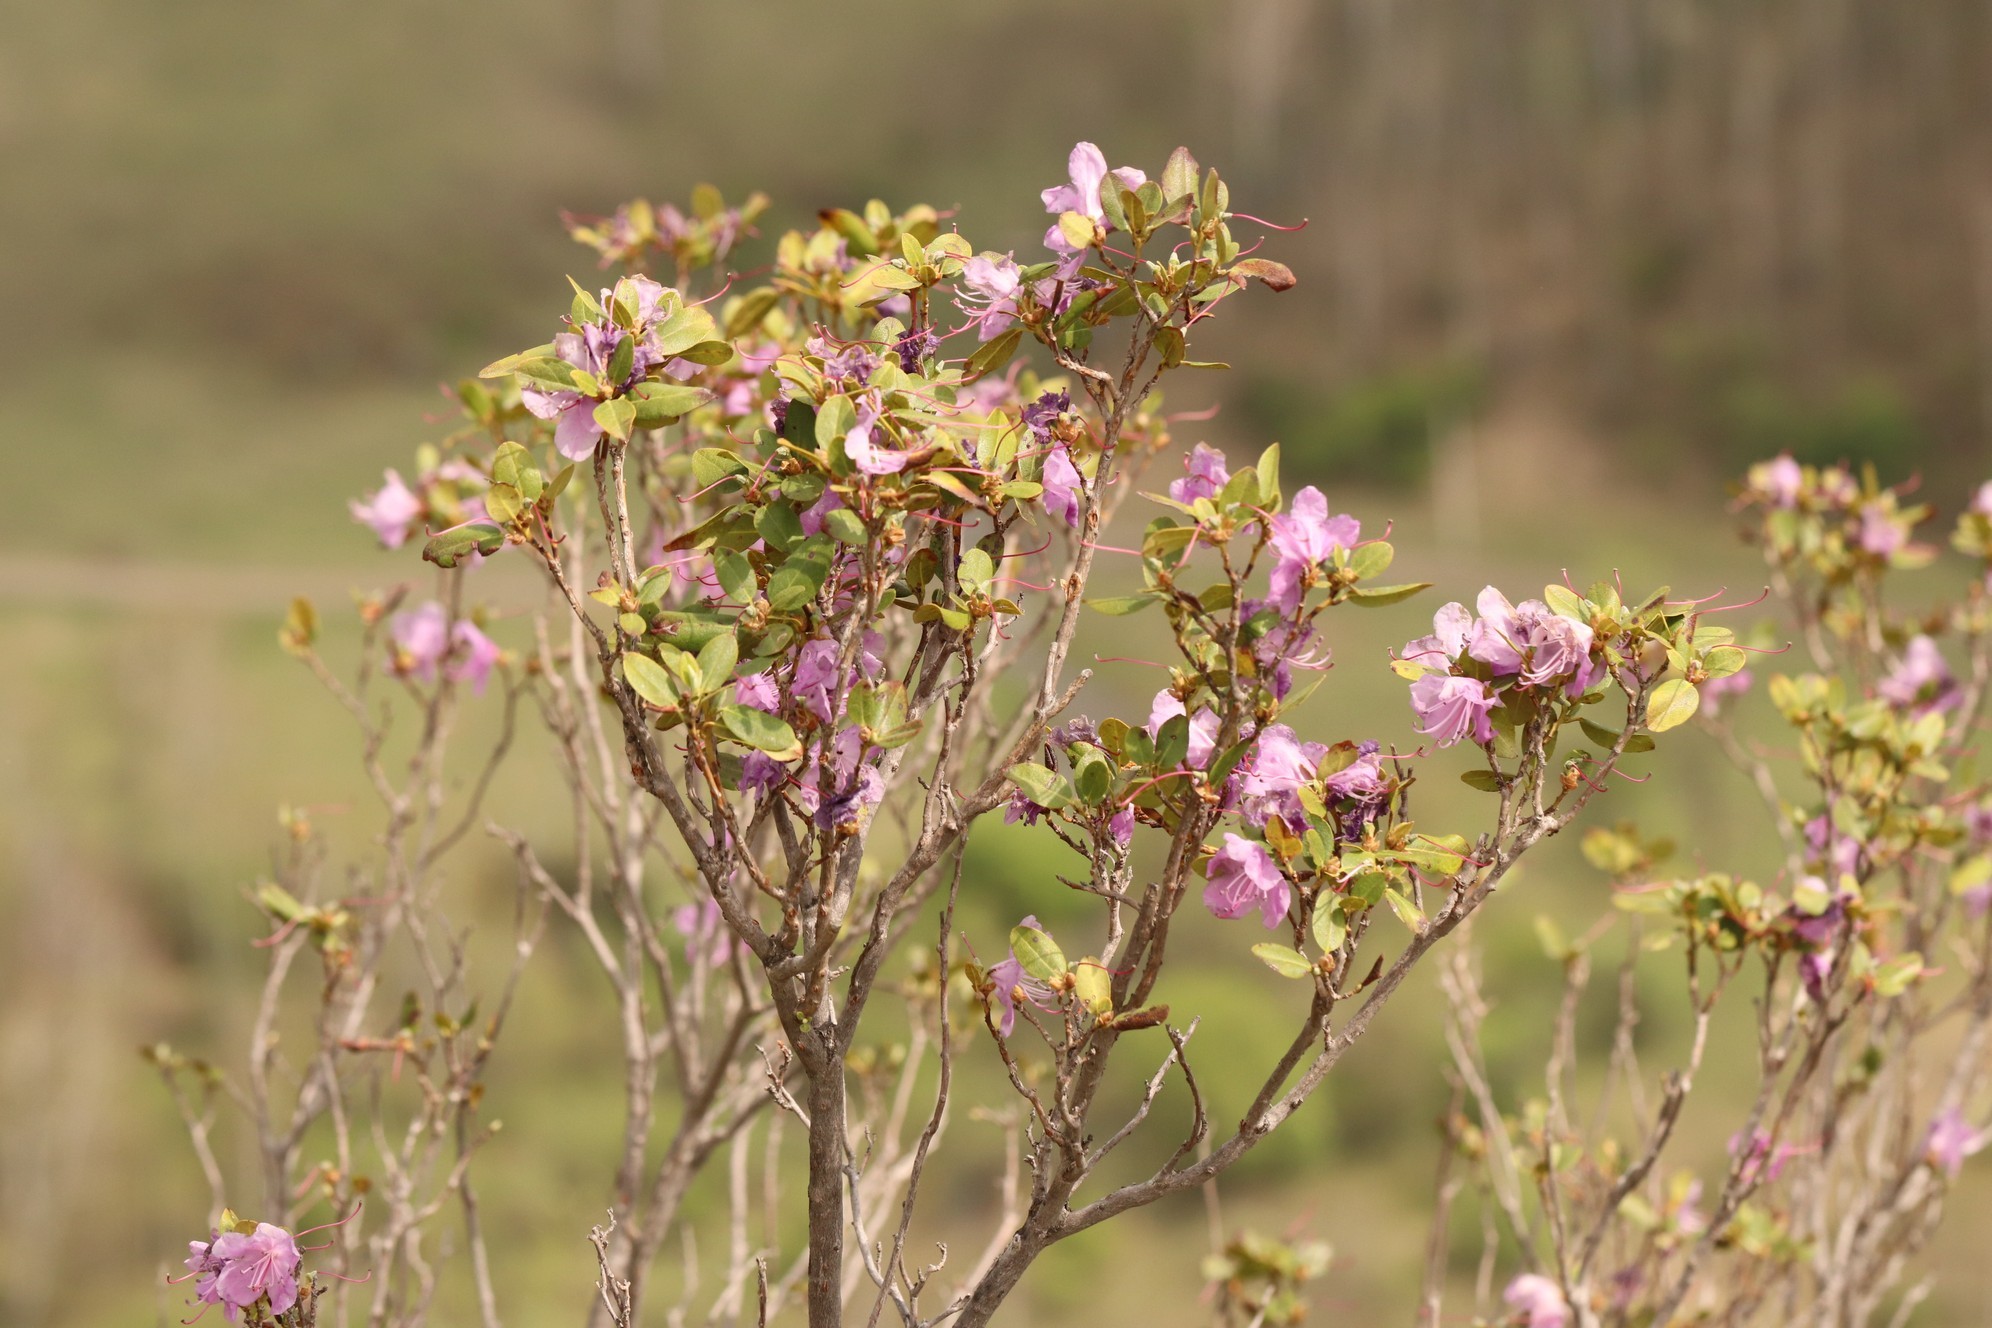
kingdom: Plantae
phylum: Tracheophyta
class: Magnoliopsida
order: Ericales
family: Ericaceae
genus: Rhododendron
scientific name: Rhododendron dauricum
